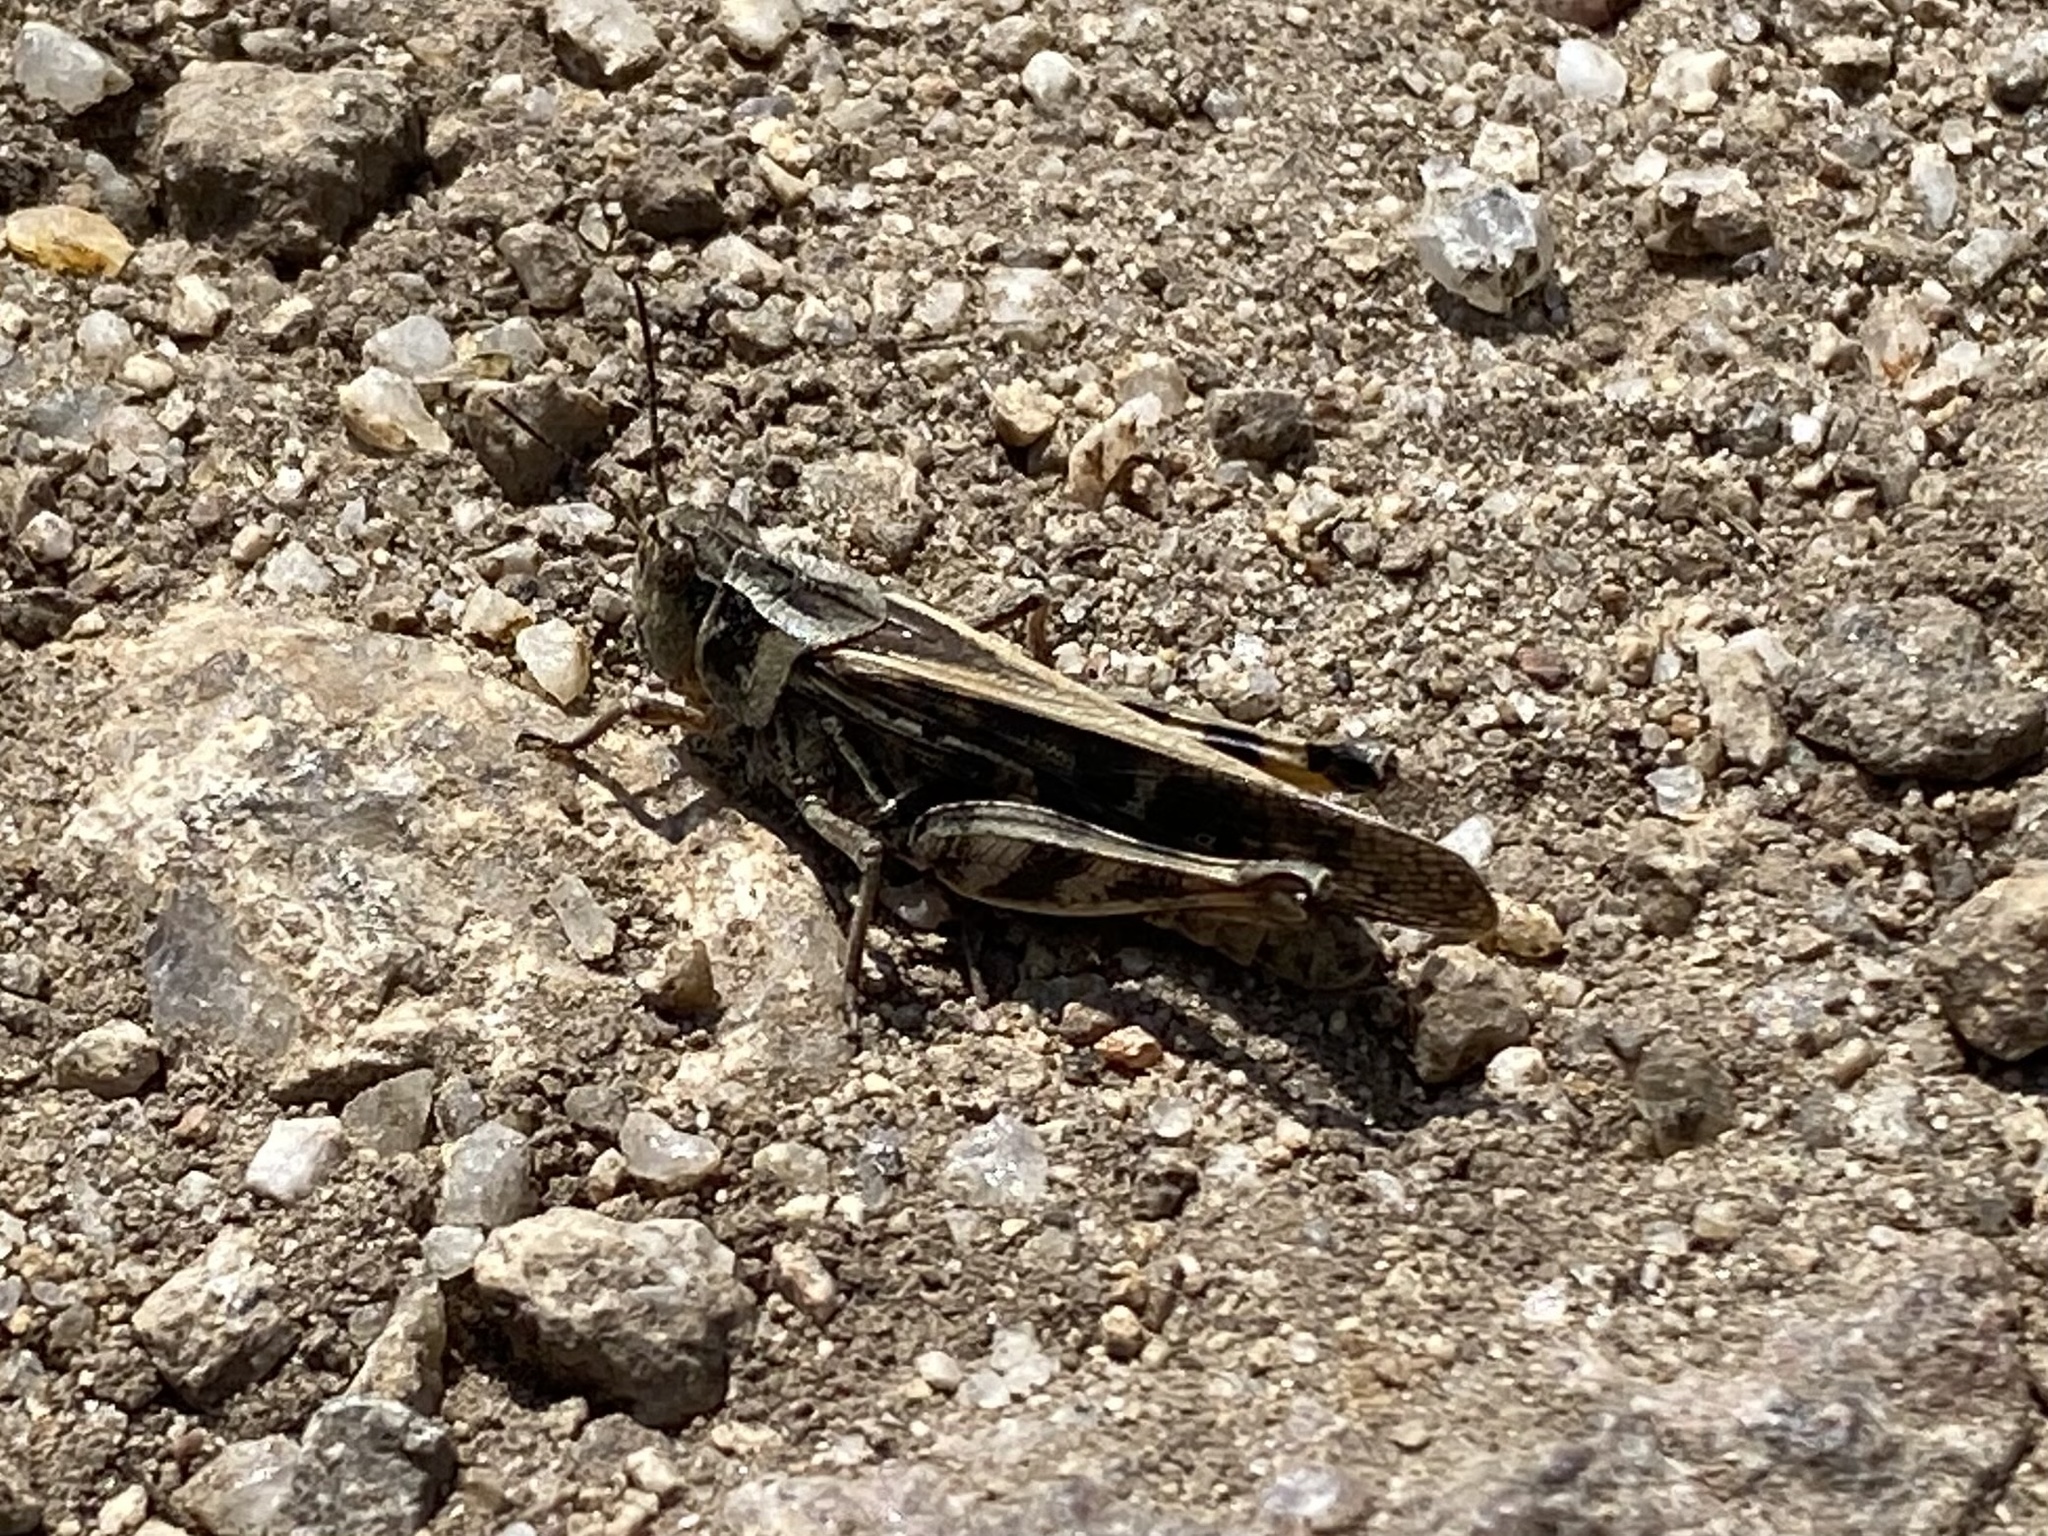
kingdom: Animalia
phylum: Arthropoda
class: Insecta
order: Orthoptera
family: Acrididae
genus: Camnula
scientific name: Camnula pellucida
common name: Clear-winged grasshopper
